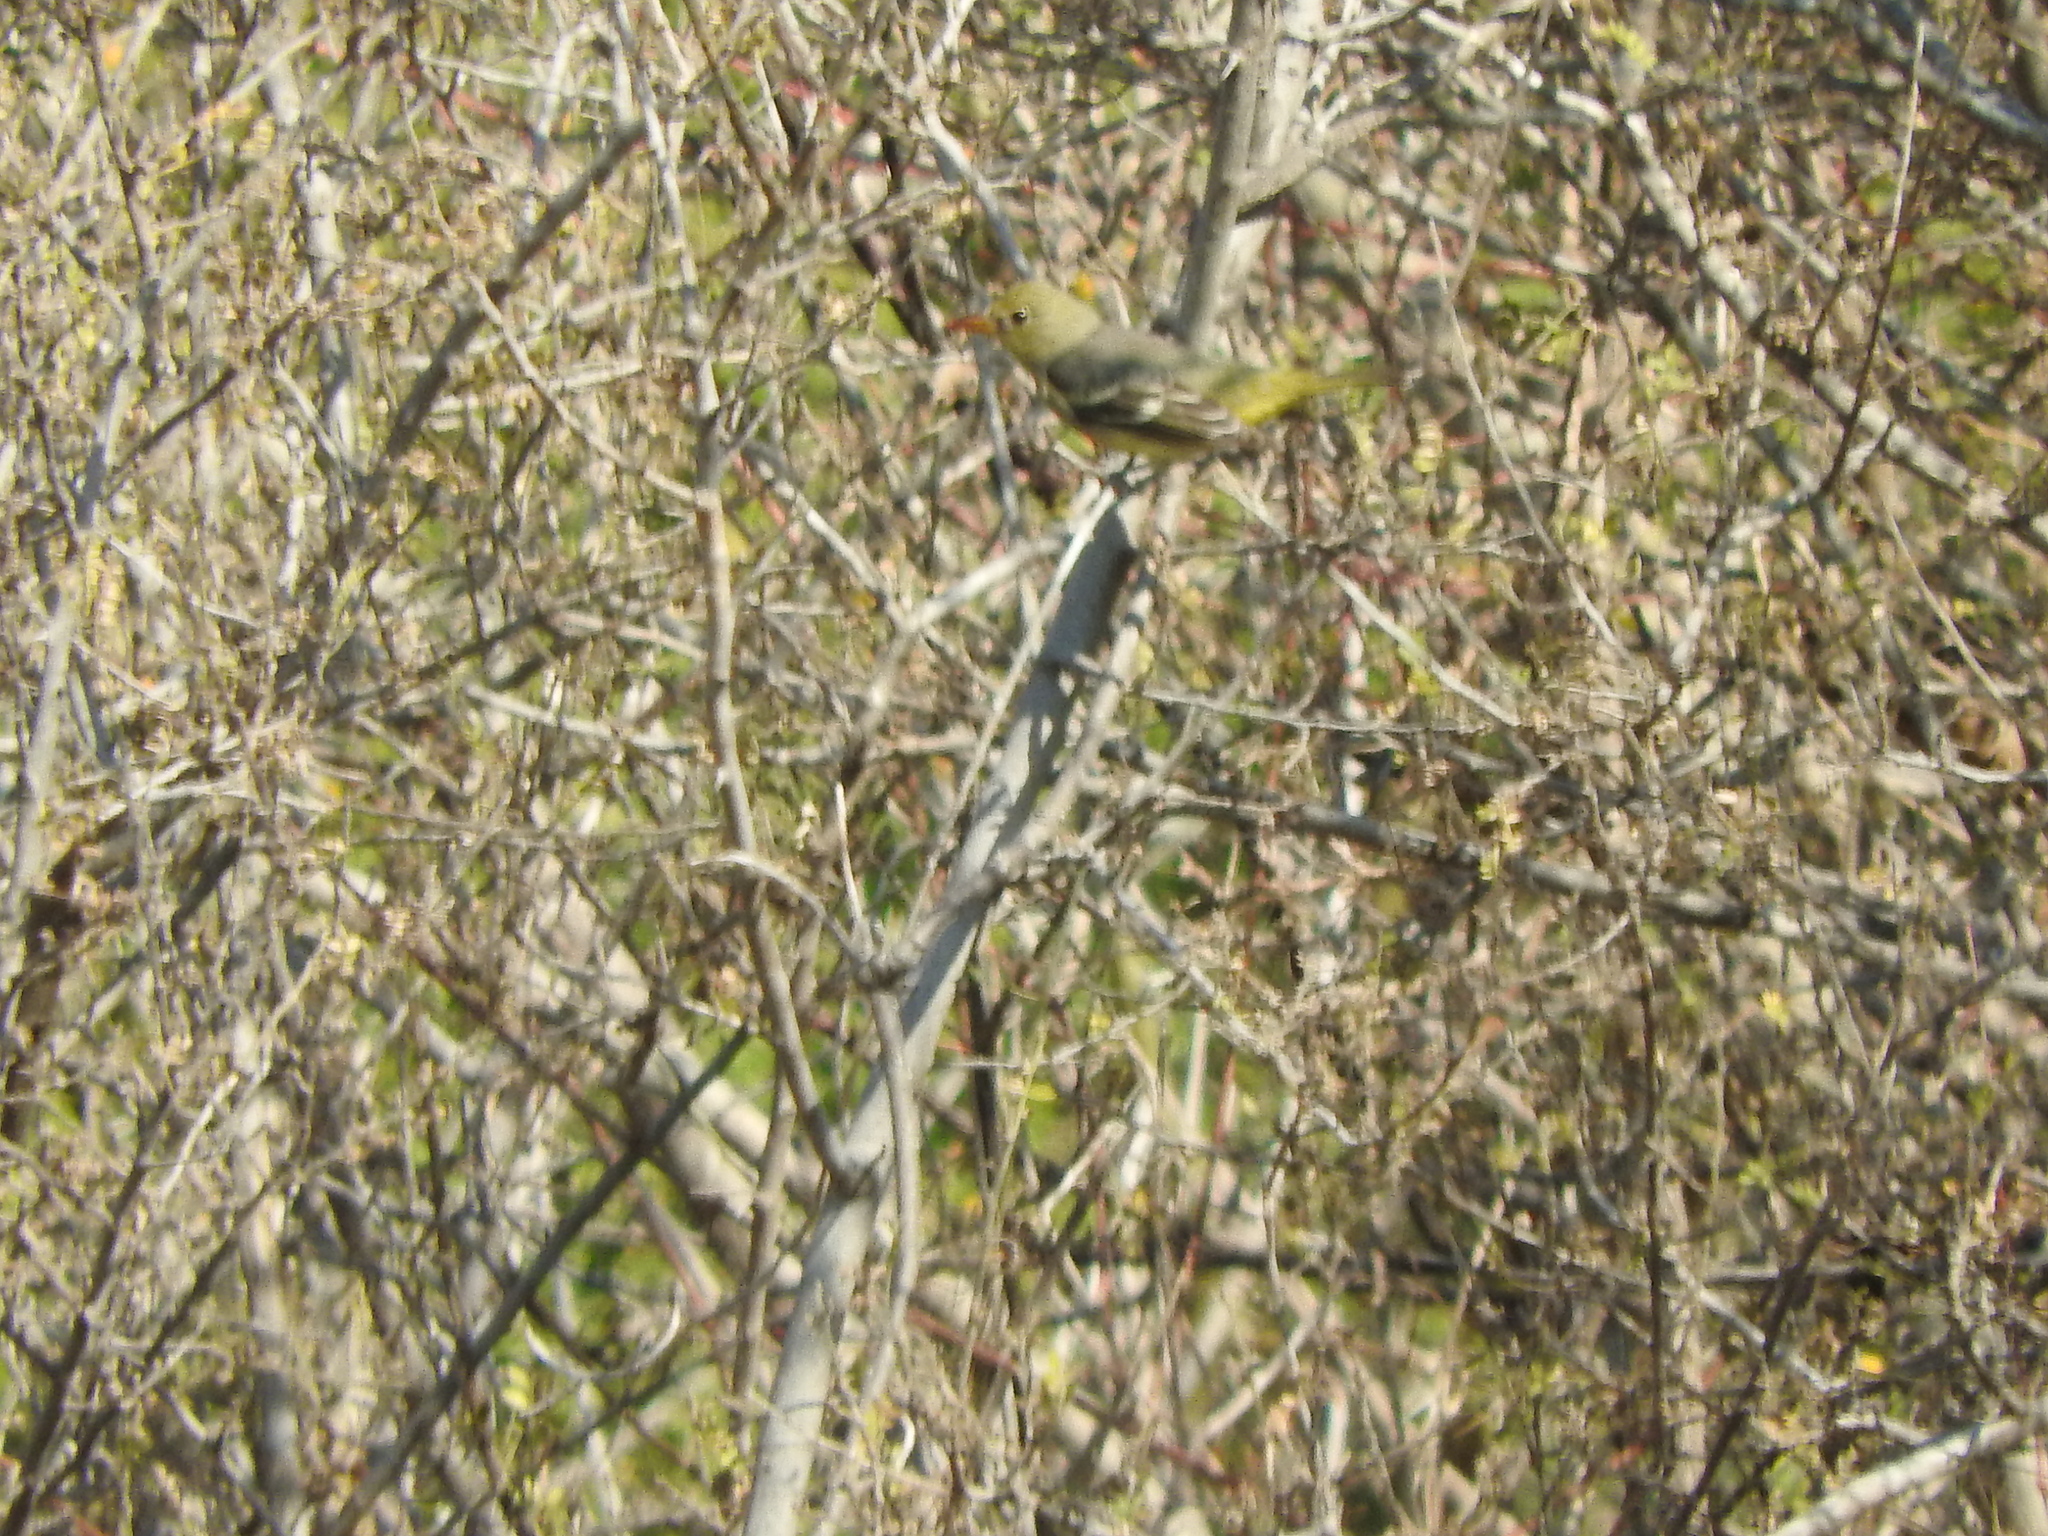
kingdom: Animalia
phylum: Chordata
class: Aves
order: Passeriformes
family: Cardinalidae
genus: Piranga
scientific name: Piranga ludoviciana
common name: Western tanager
